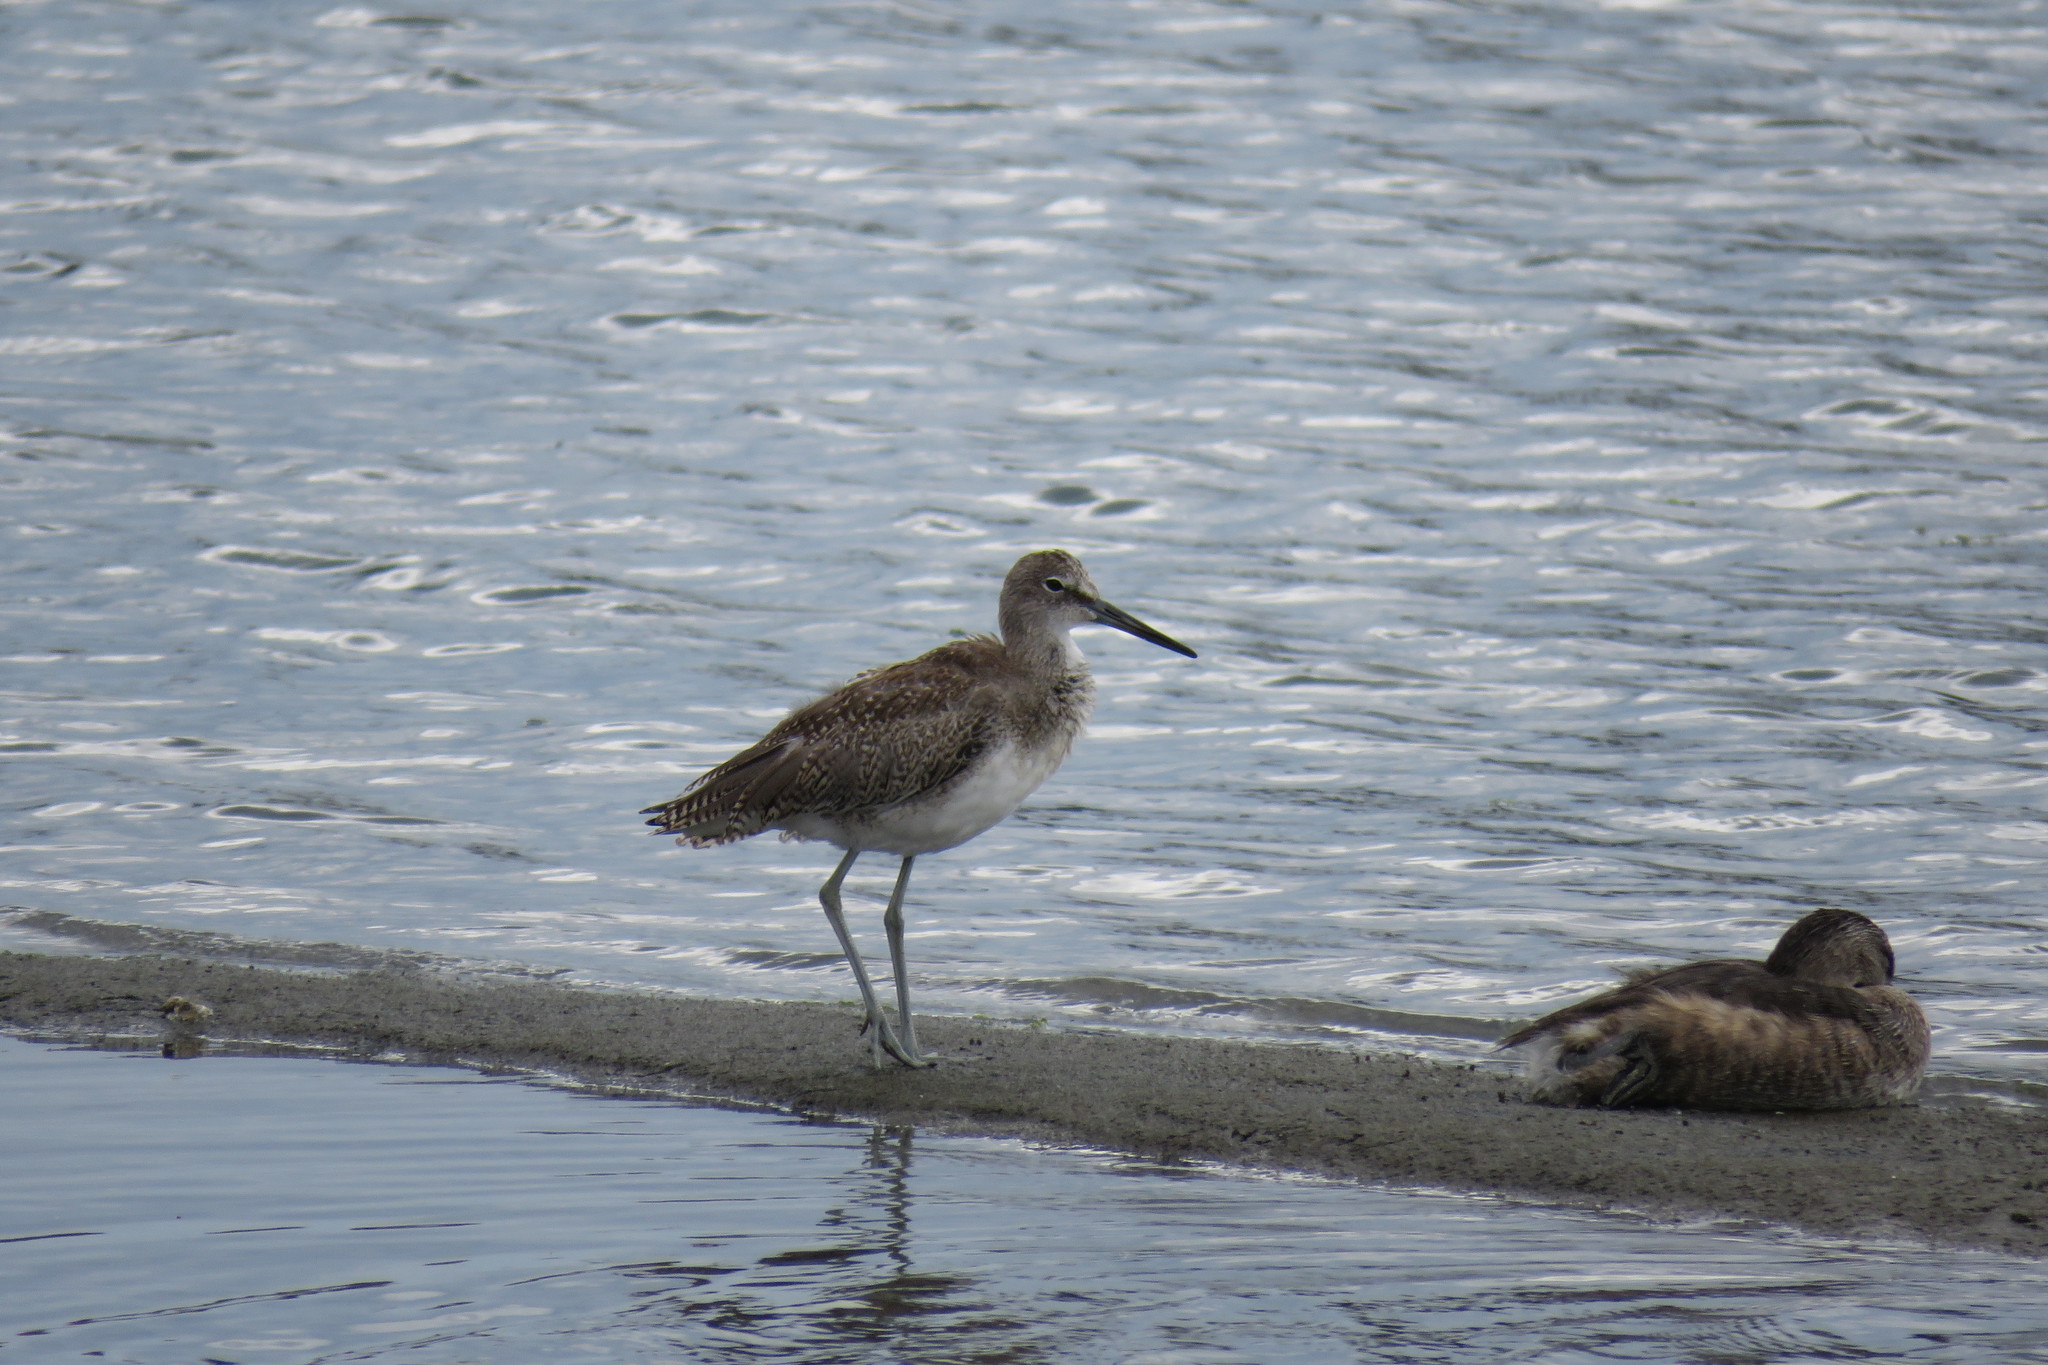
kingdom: Animalia
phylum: Chordata
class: Aves
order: Charadriiformes
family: Scolopacidae
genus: Tringa
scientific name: Tringa semipalmata
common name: Willet
